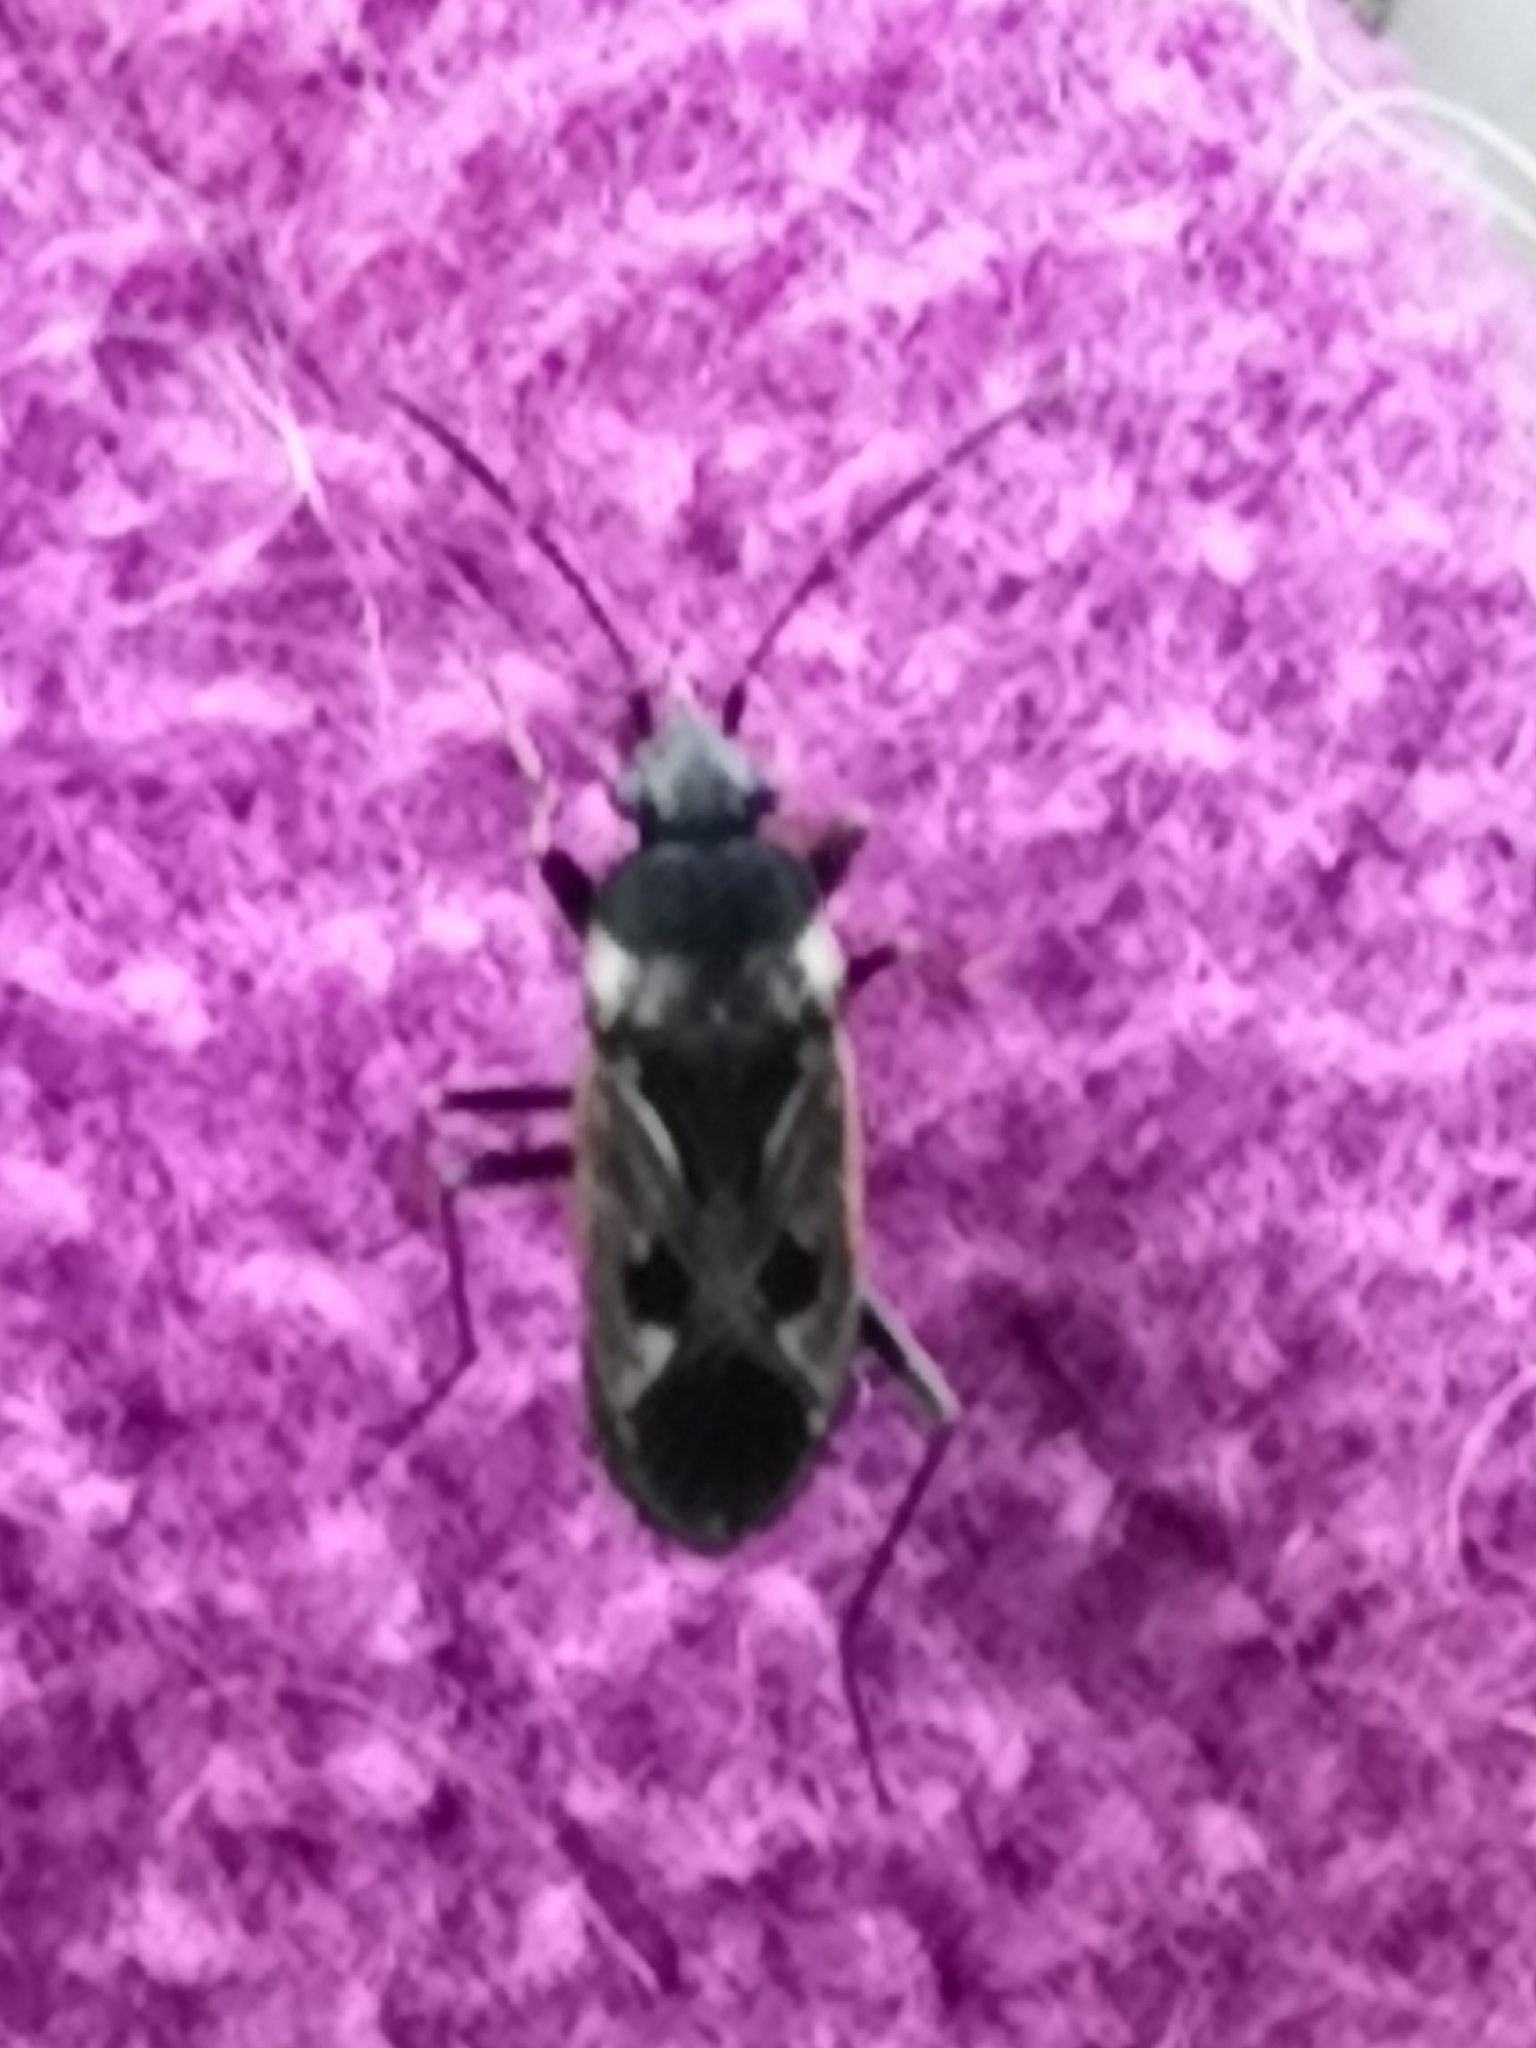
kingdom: Animalia
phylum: Arthropoda
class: Insecta
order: Hemiptera
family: Rhyparochromidae
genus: Rhyparochromus
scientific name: Rhyparochromus vulgaris
